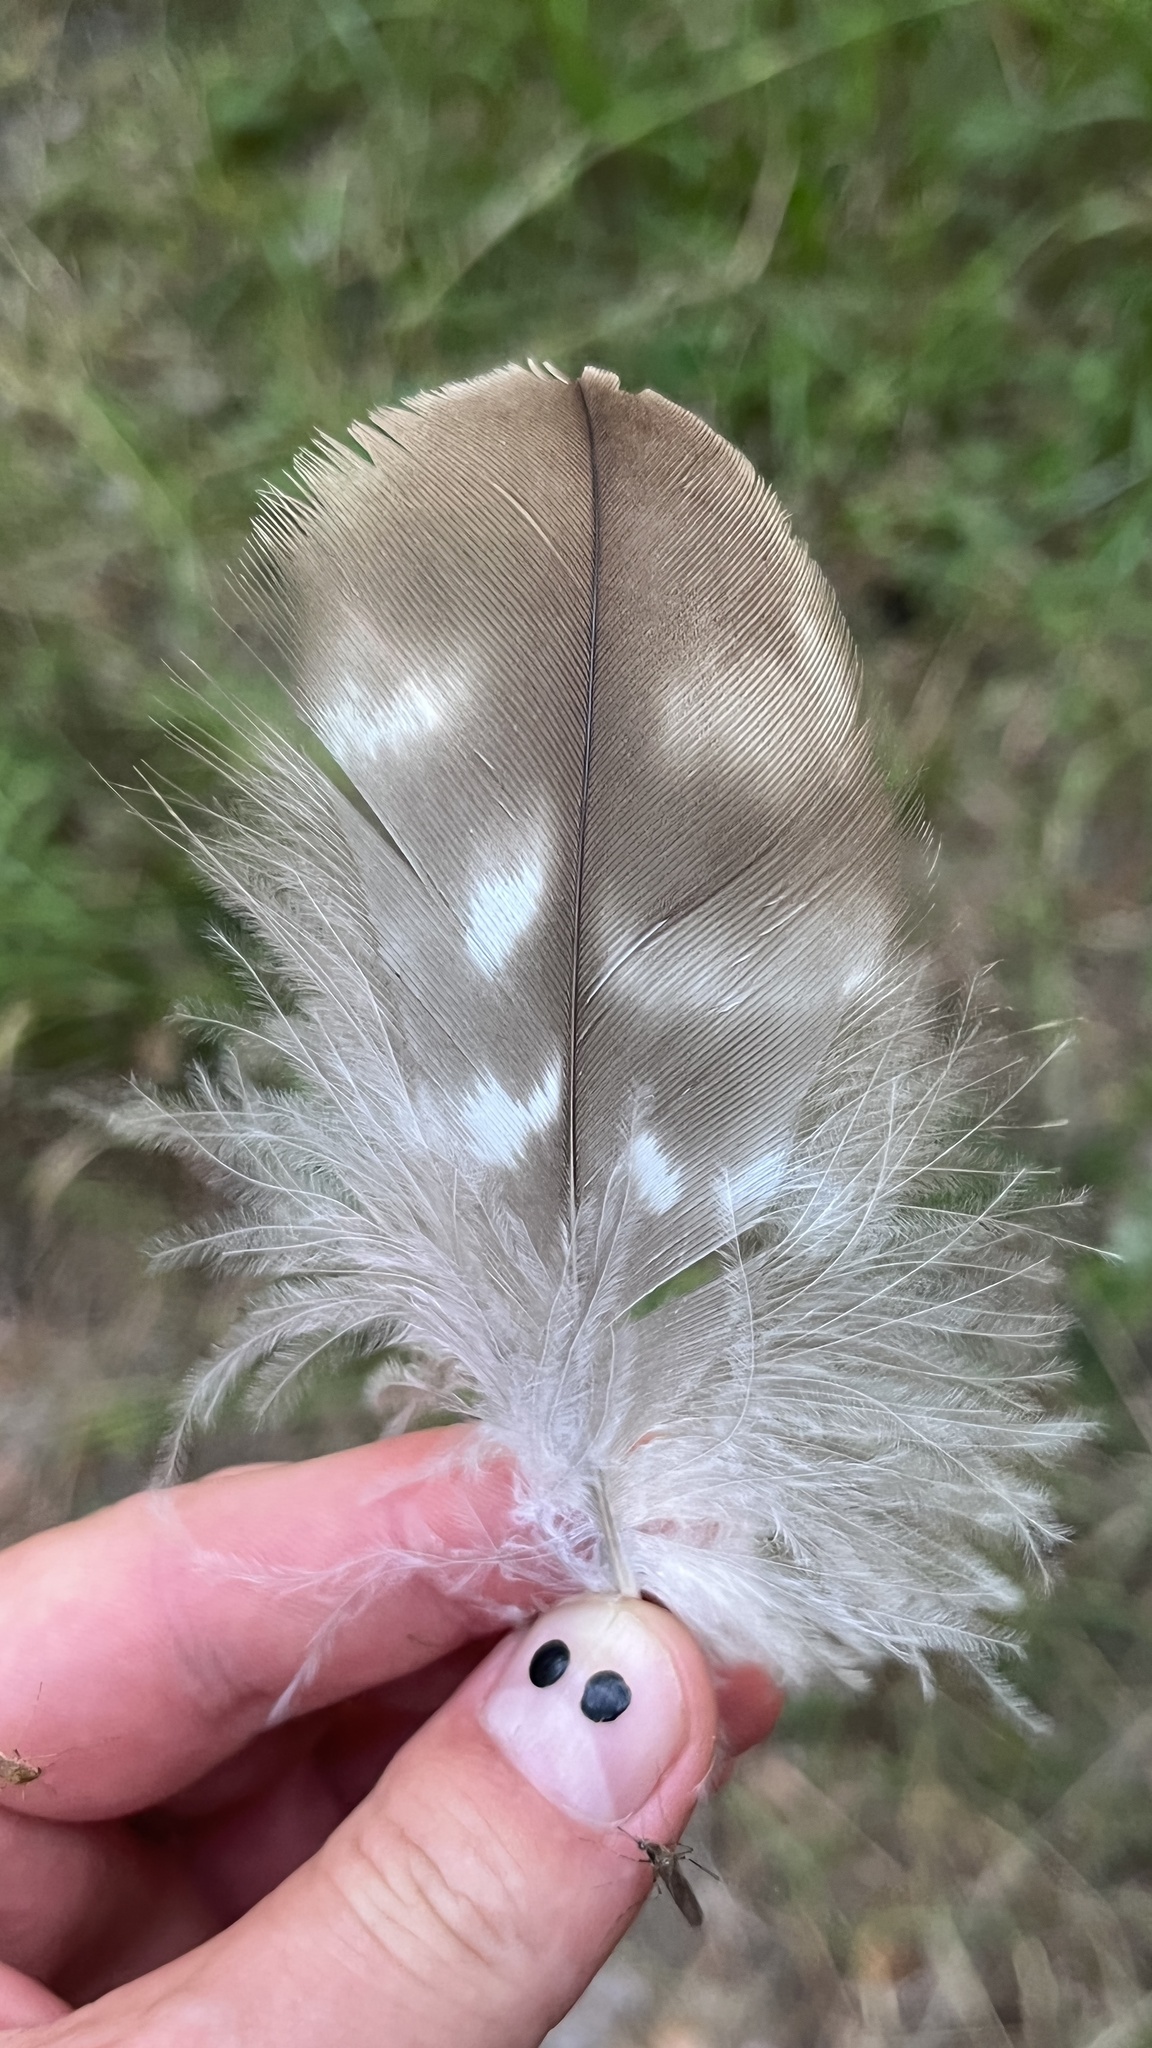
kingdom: Animalia
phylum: Chordata
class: Aves
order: Accipitriformes
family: Accipitridae
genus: Buteo
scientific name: Buteo buteo
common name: Common buzzard
